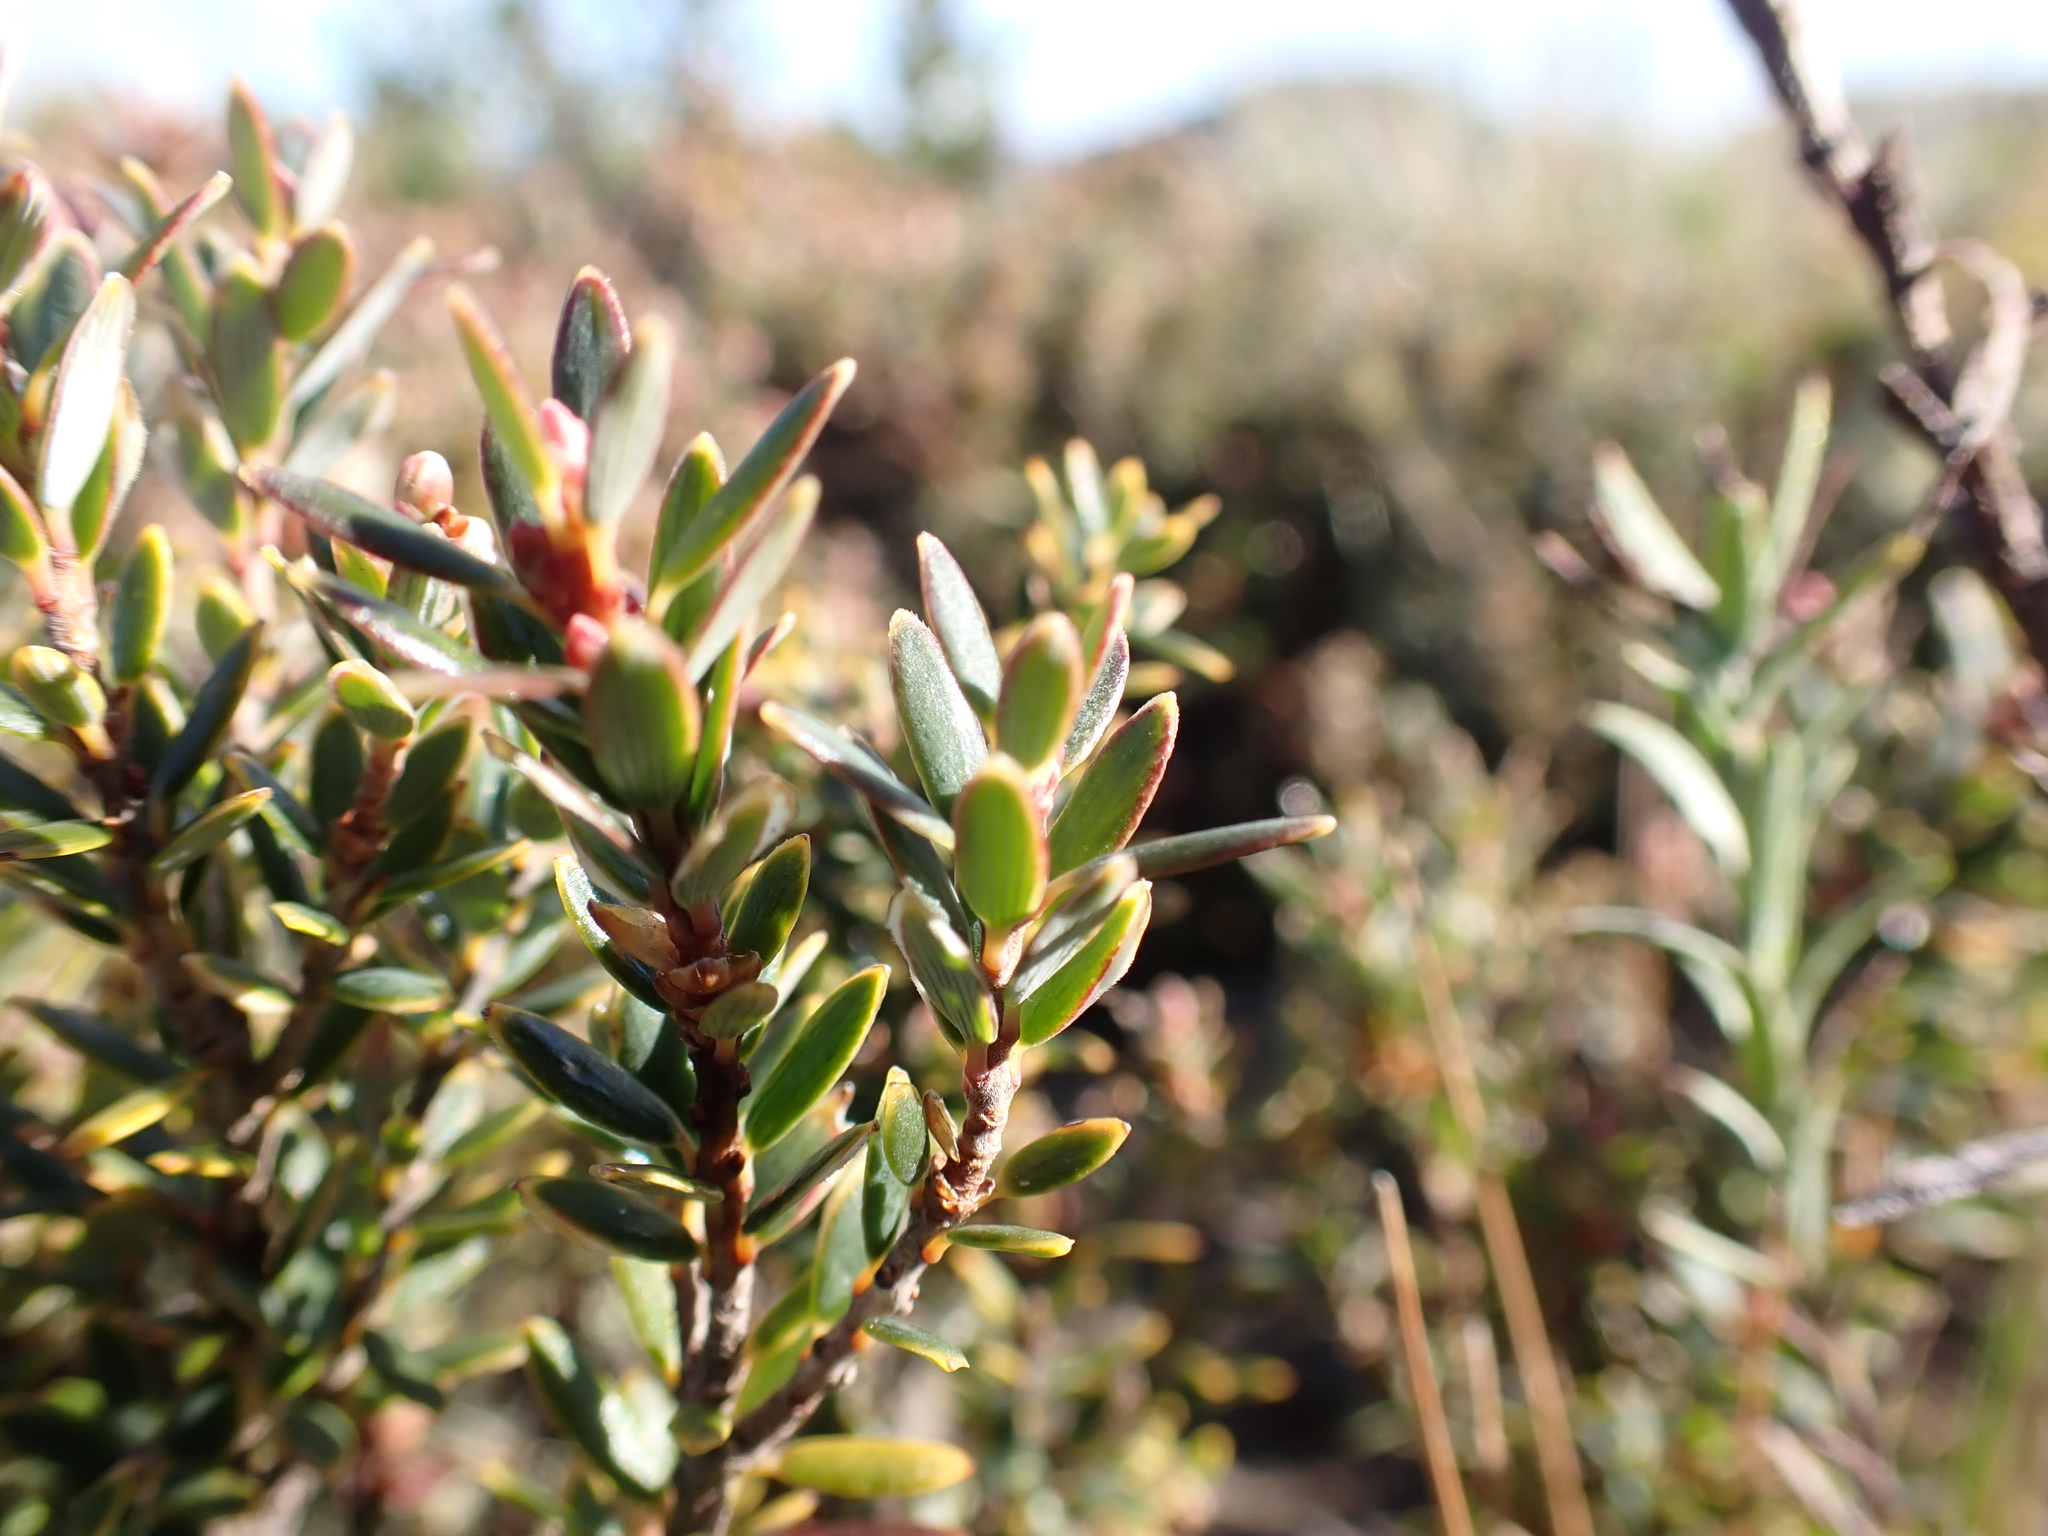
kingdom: Plantae
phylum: Tracheophyta
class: Magnoliopsida
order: Ericales
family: Ericaceae
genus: Acrothamnus
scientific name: Acrothamnus montanus
